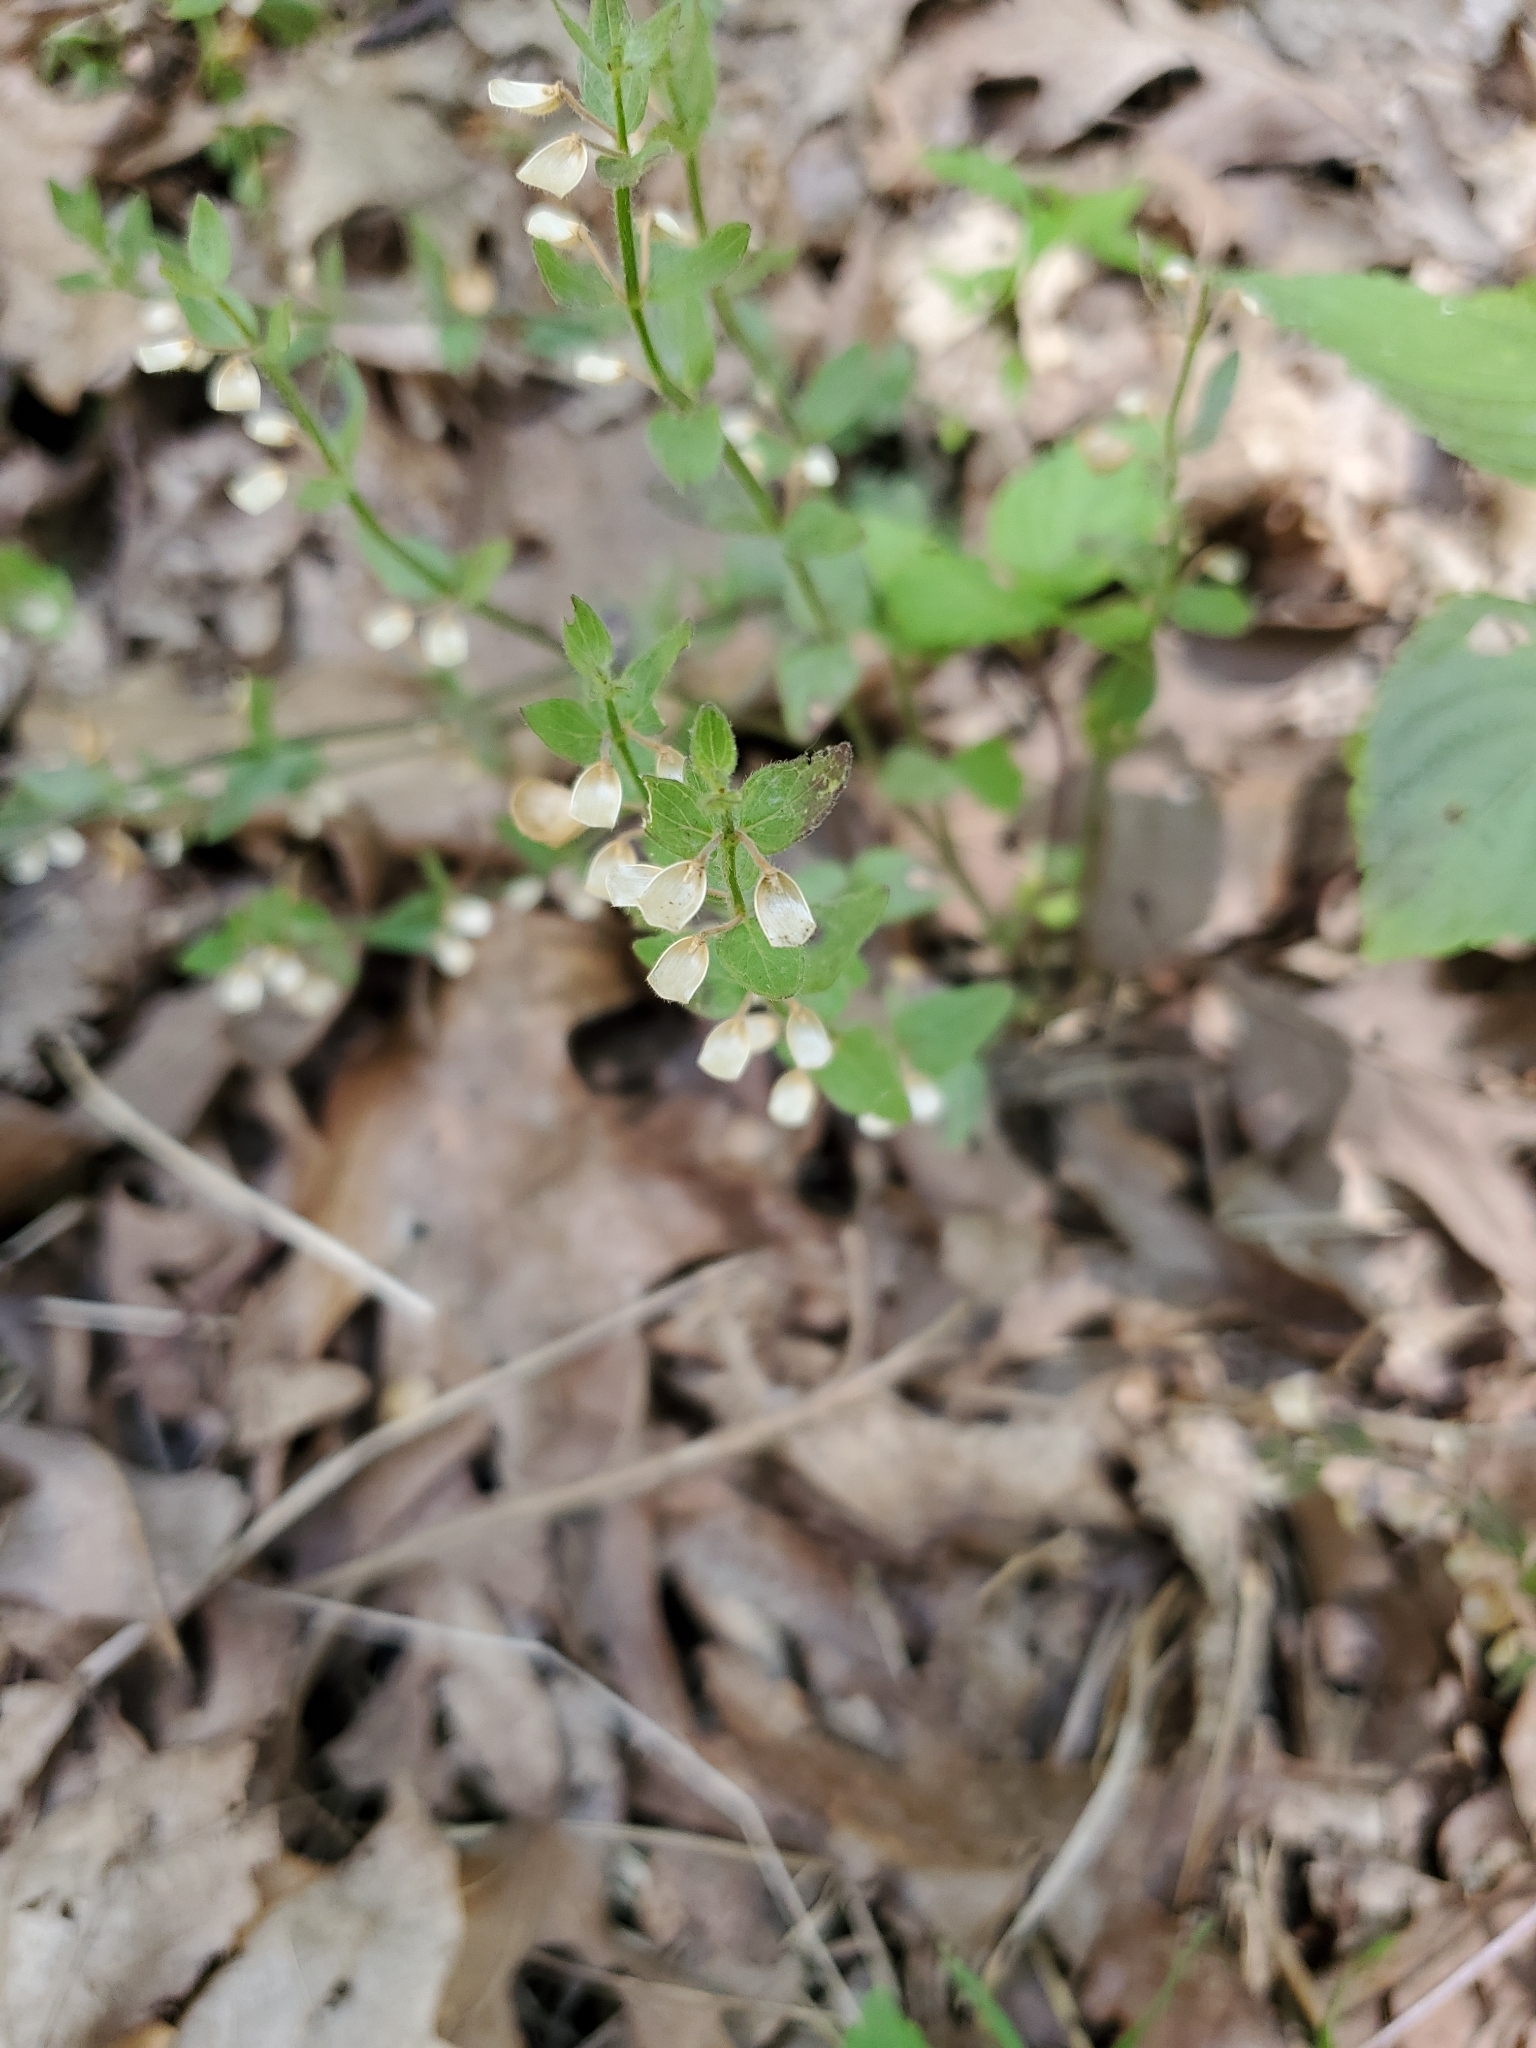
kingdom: Plantae
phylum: Tracheophyta
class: Magnoliopsida
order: Lamiales
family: Lamiaceae
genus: Scutellaria
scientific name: Scutellaria parvula
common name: Little scullcap
